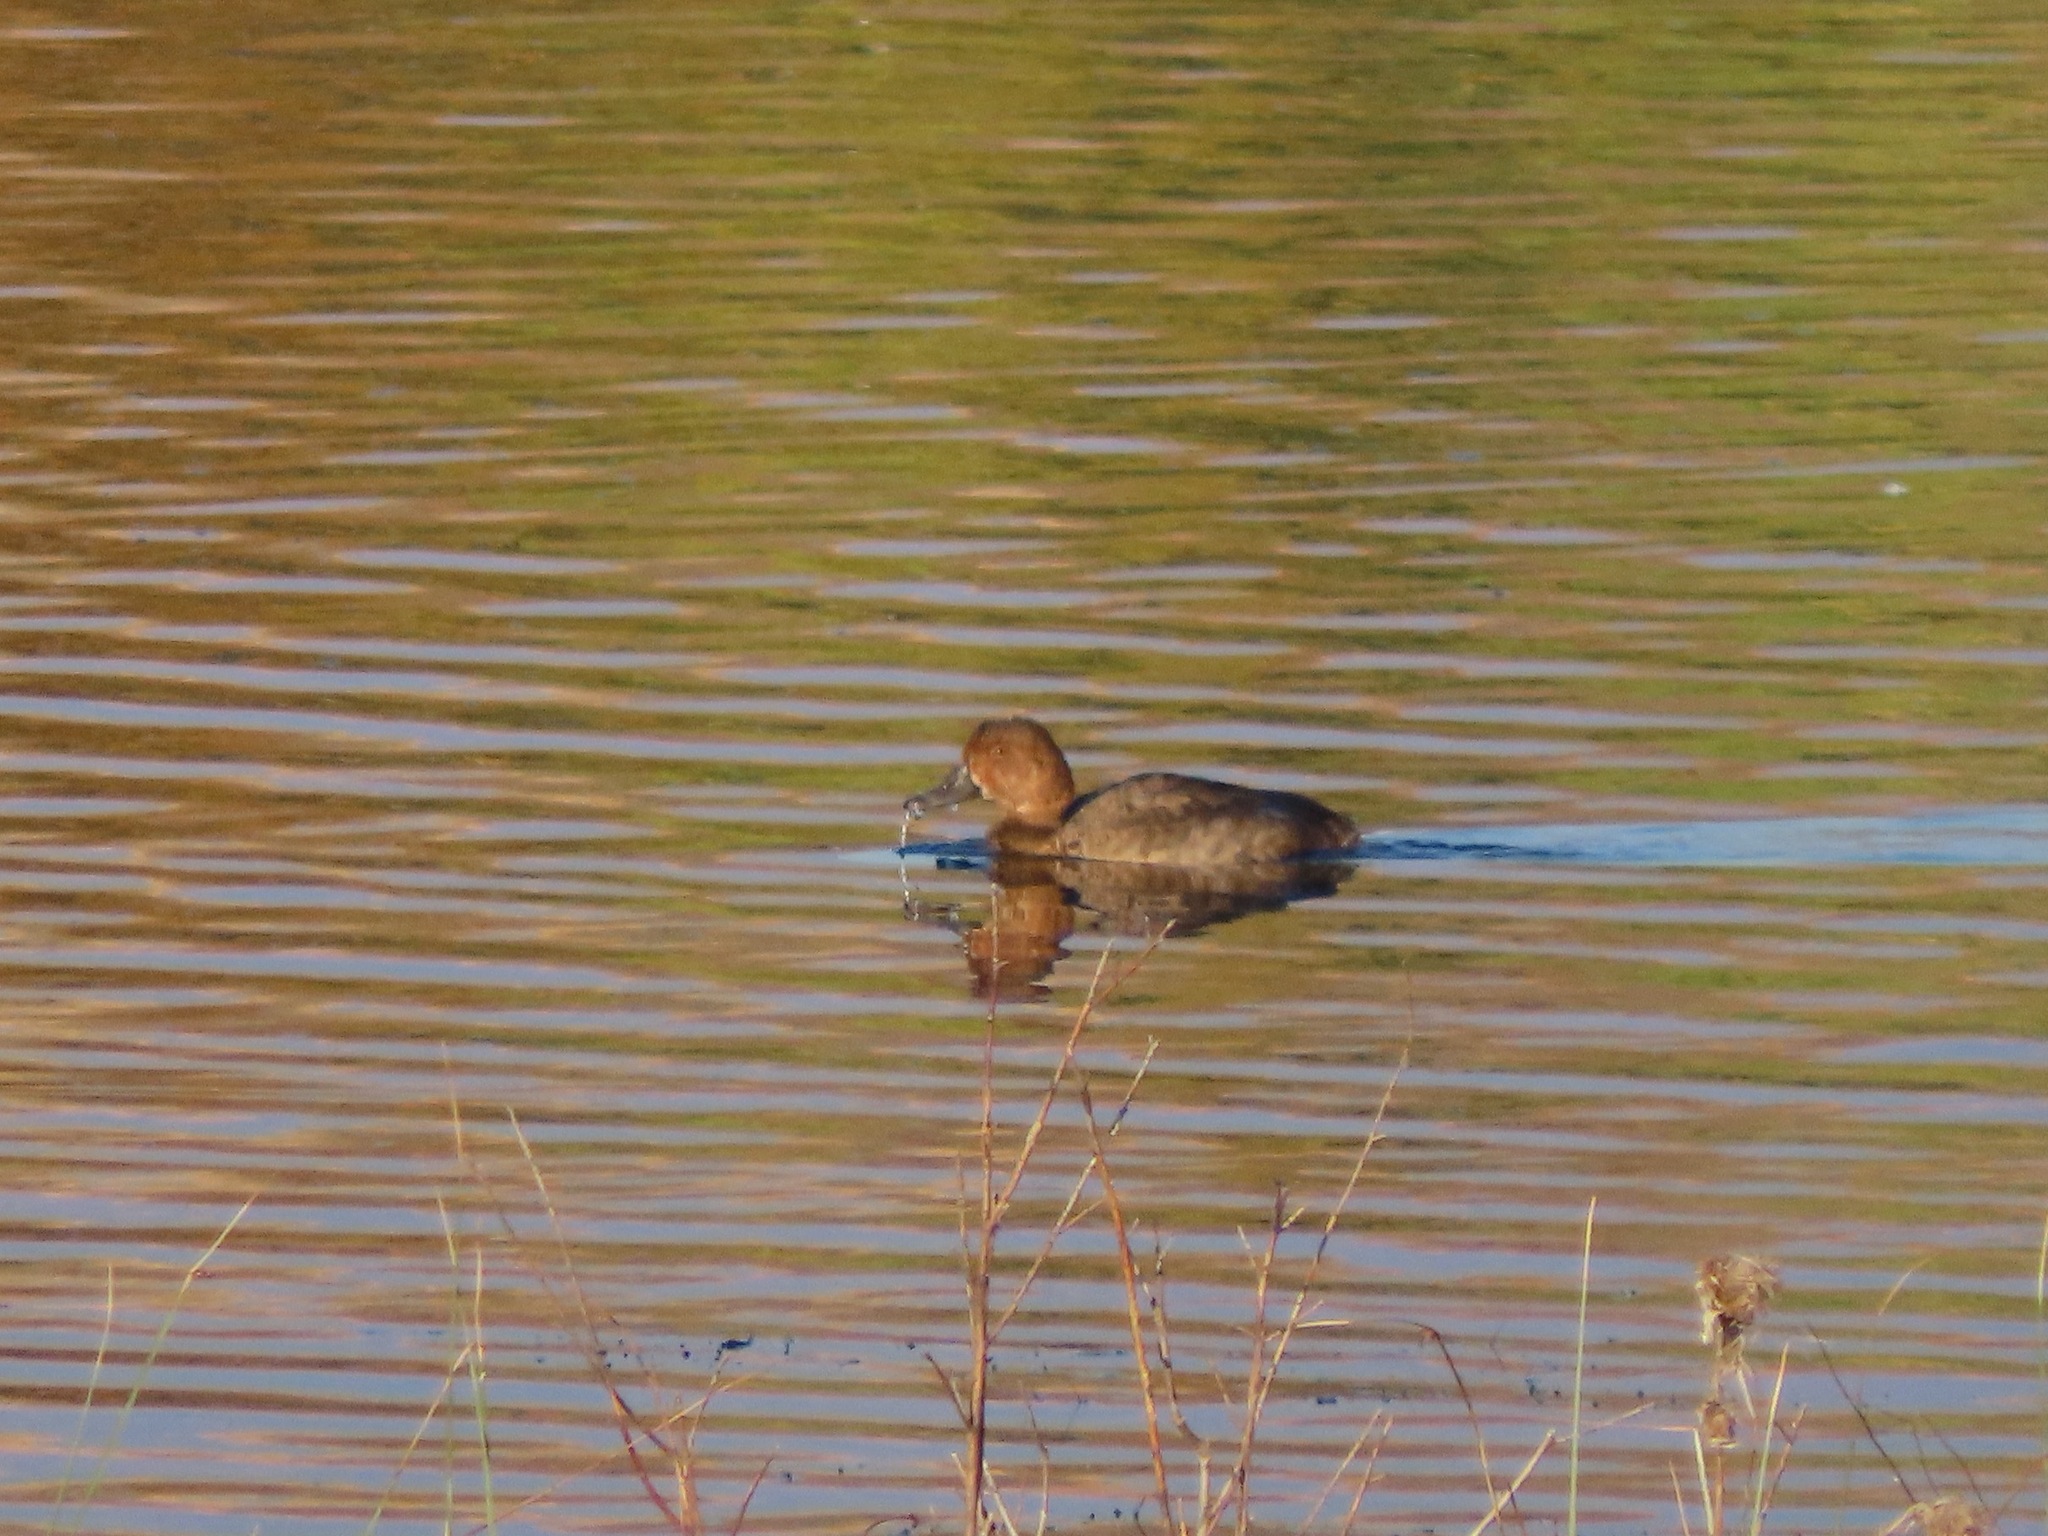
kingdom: Animalia
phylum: Chordata
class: Aves
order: Anseriformes
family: Anatidae
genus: Aythya
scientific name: Aythya americana
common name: Redhead
